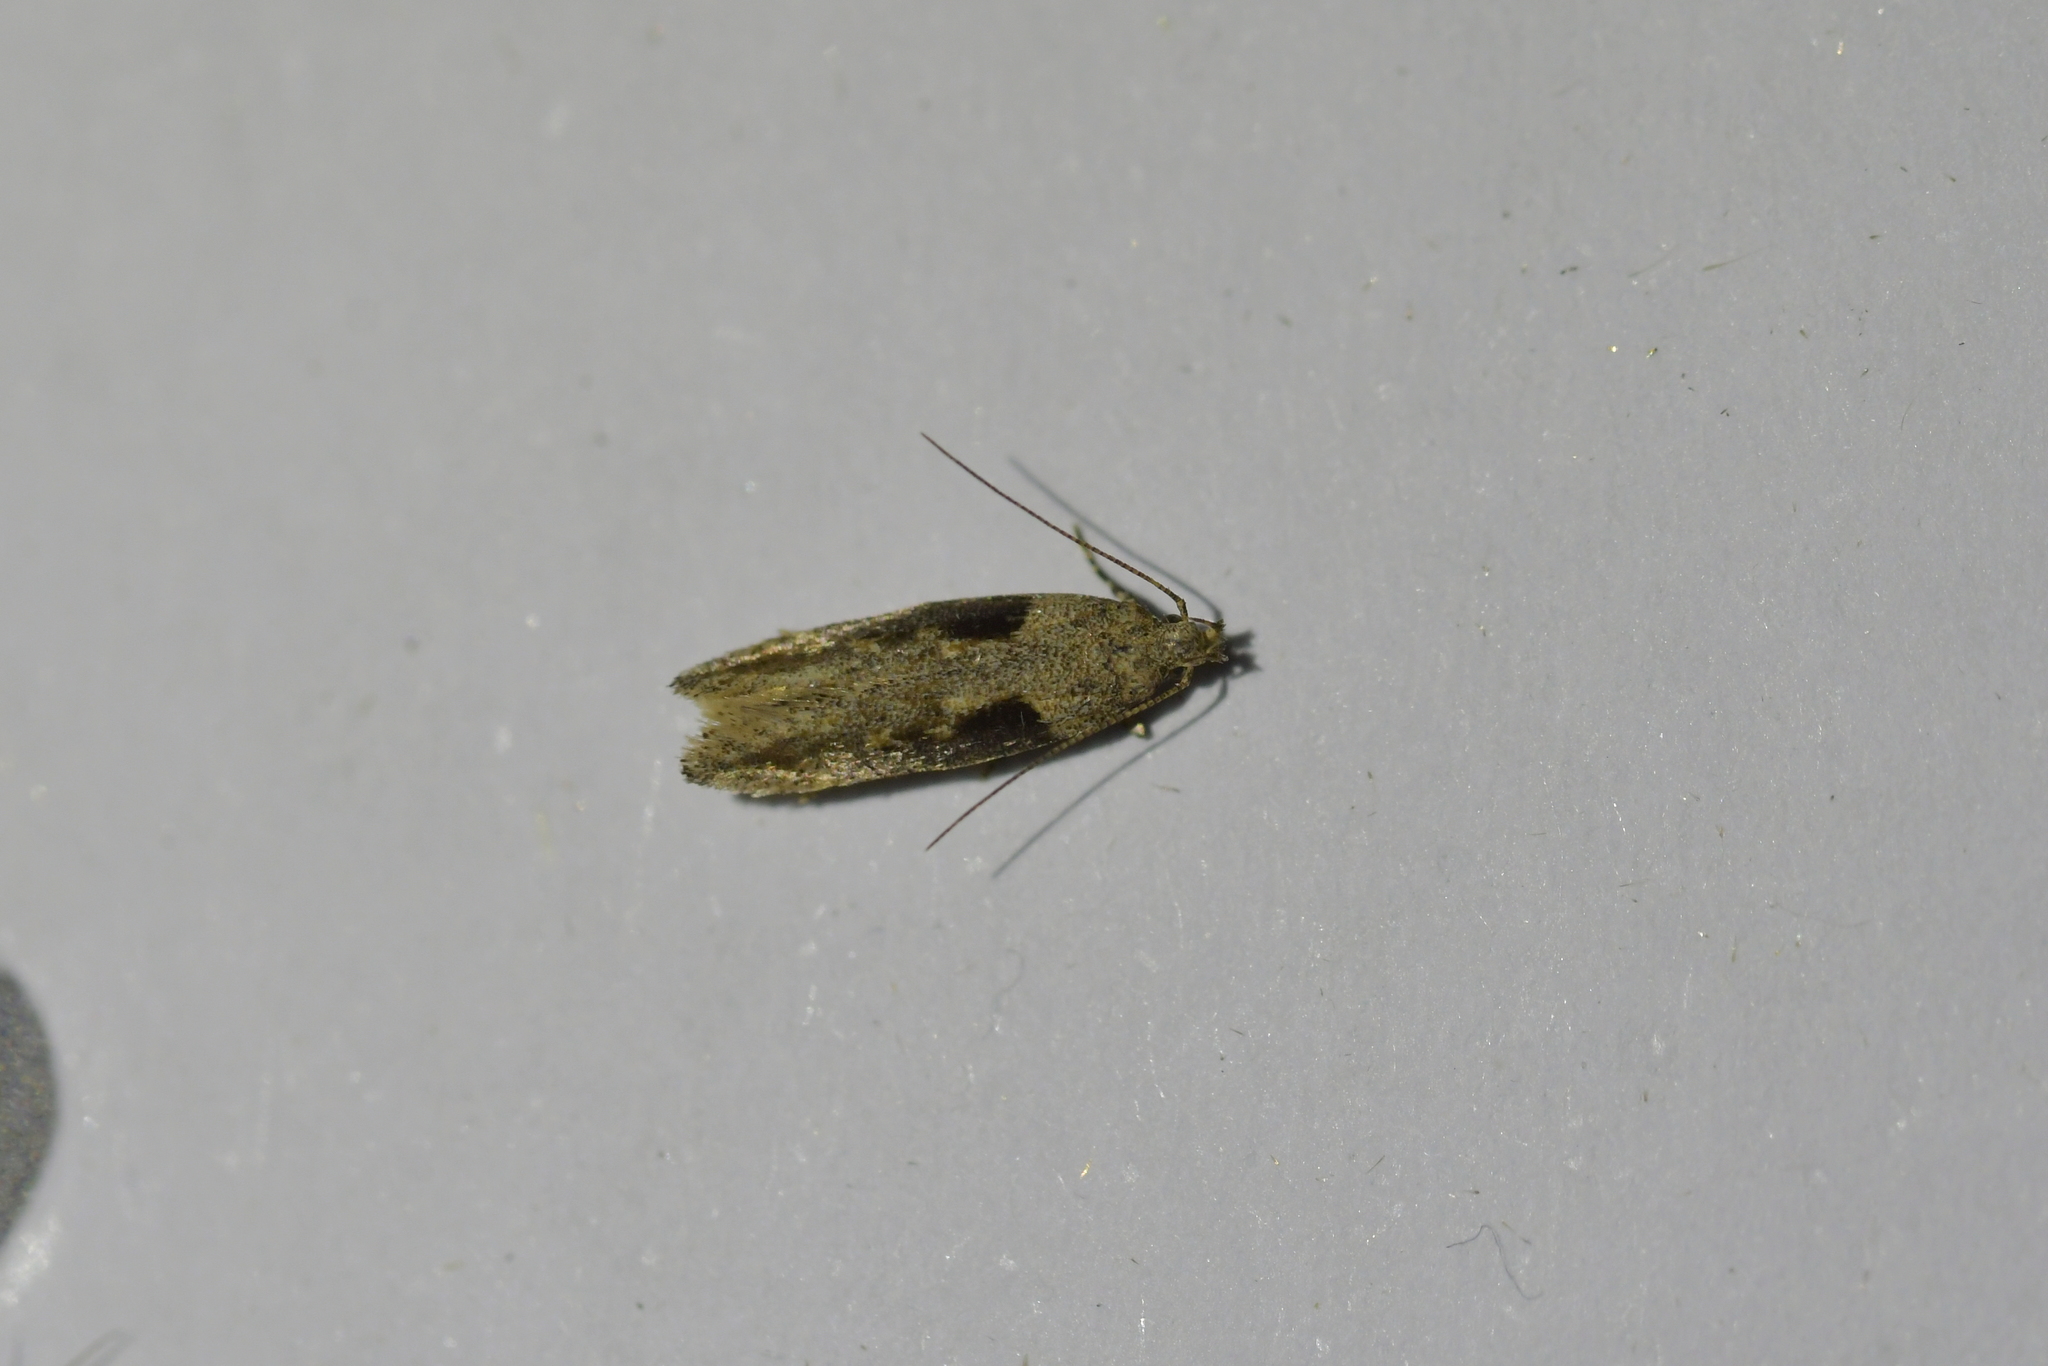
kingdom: Animalia
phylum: Arthropoda
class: Insecta
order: Lepidoptera
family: Gelechiidae
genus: Symmetrischema
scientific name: Symmetrischema tangolias
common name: Moth
